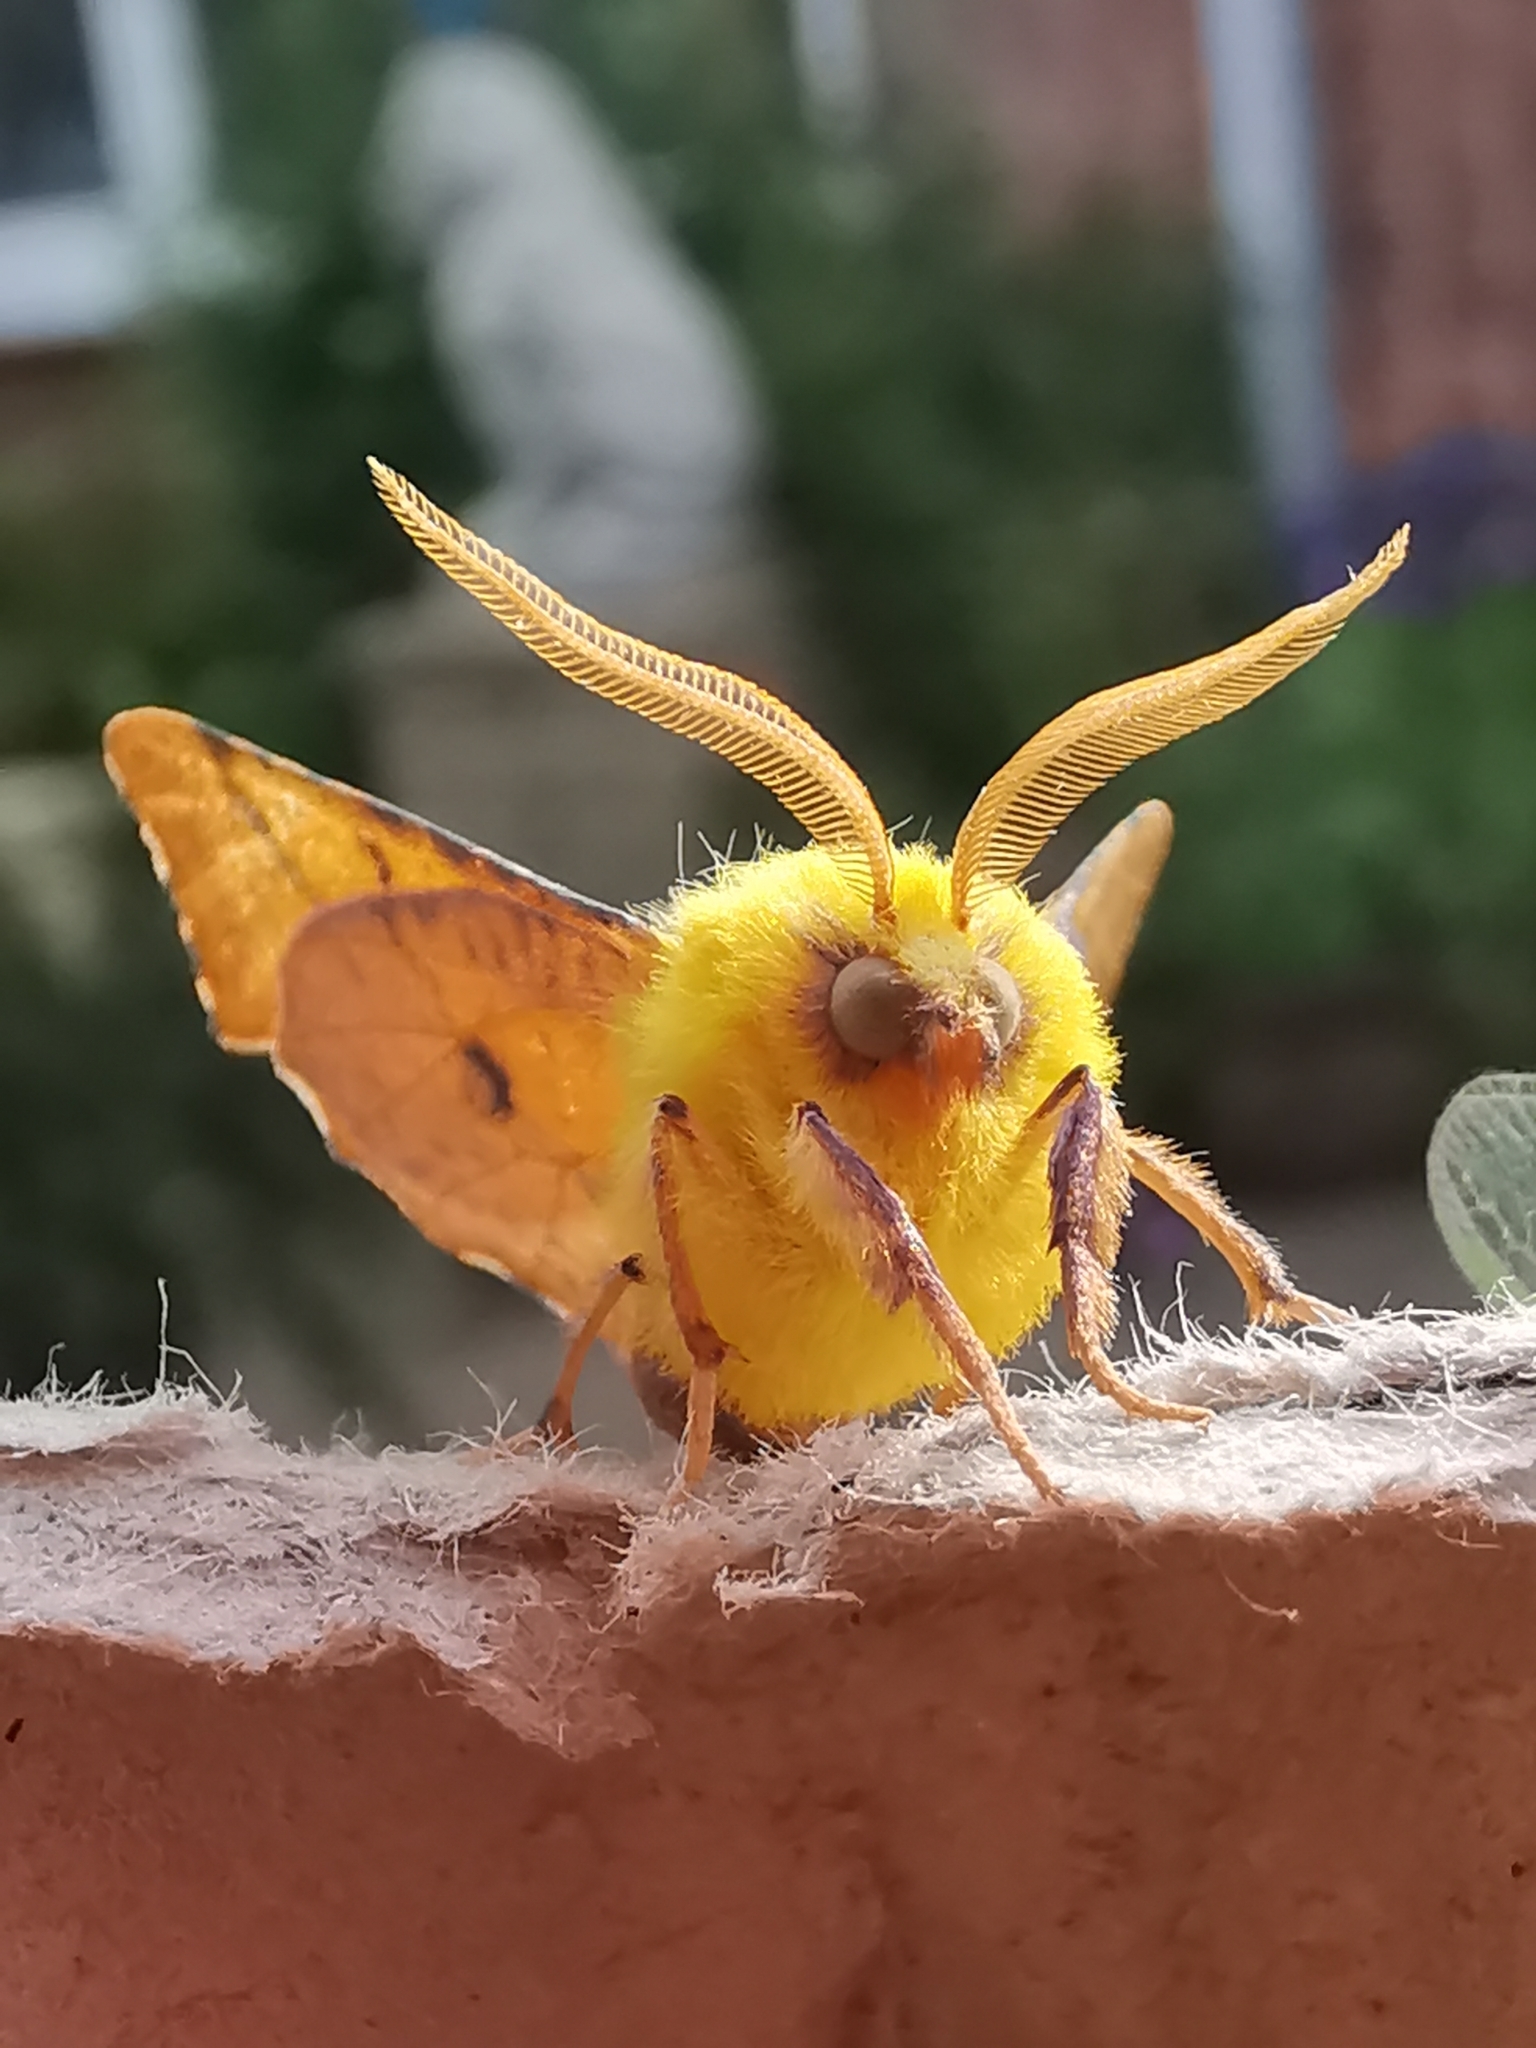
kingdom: Animalia
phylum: Arthropoda
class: Insecta
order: Lepidoptera
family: Geometridae
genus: Ennomos
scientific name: Ennomos alniaria
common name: Canary-shouldered thorn
